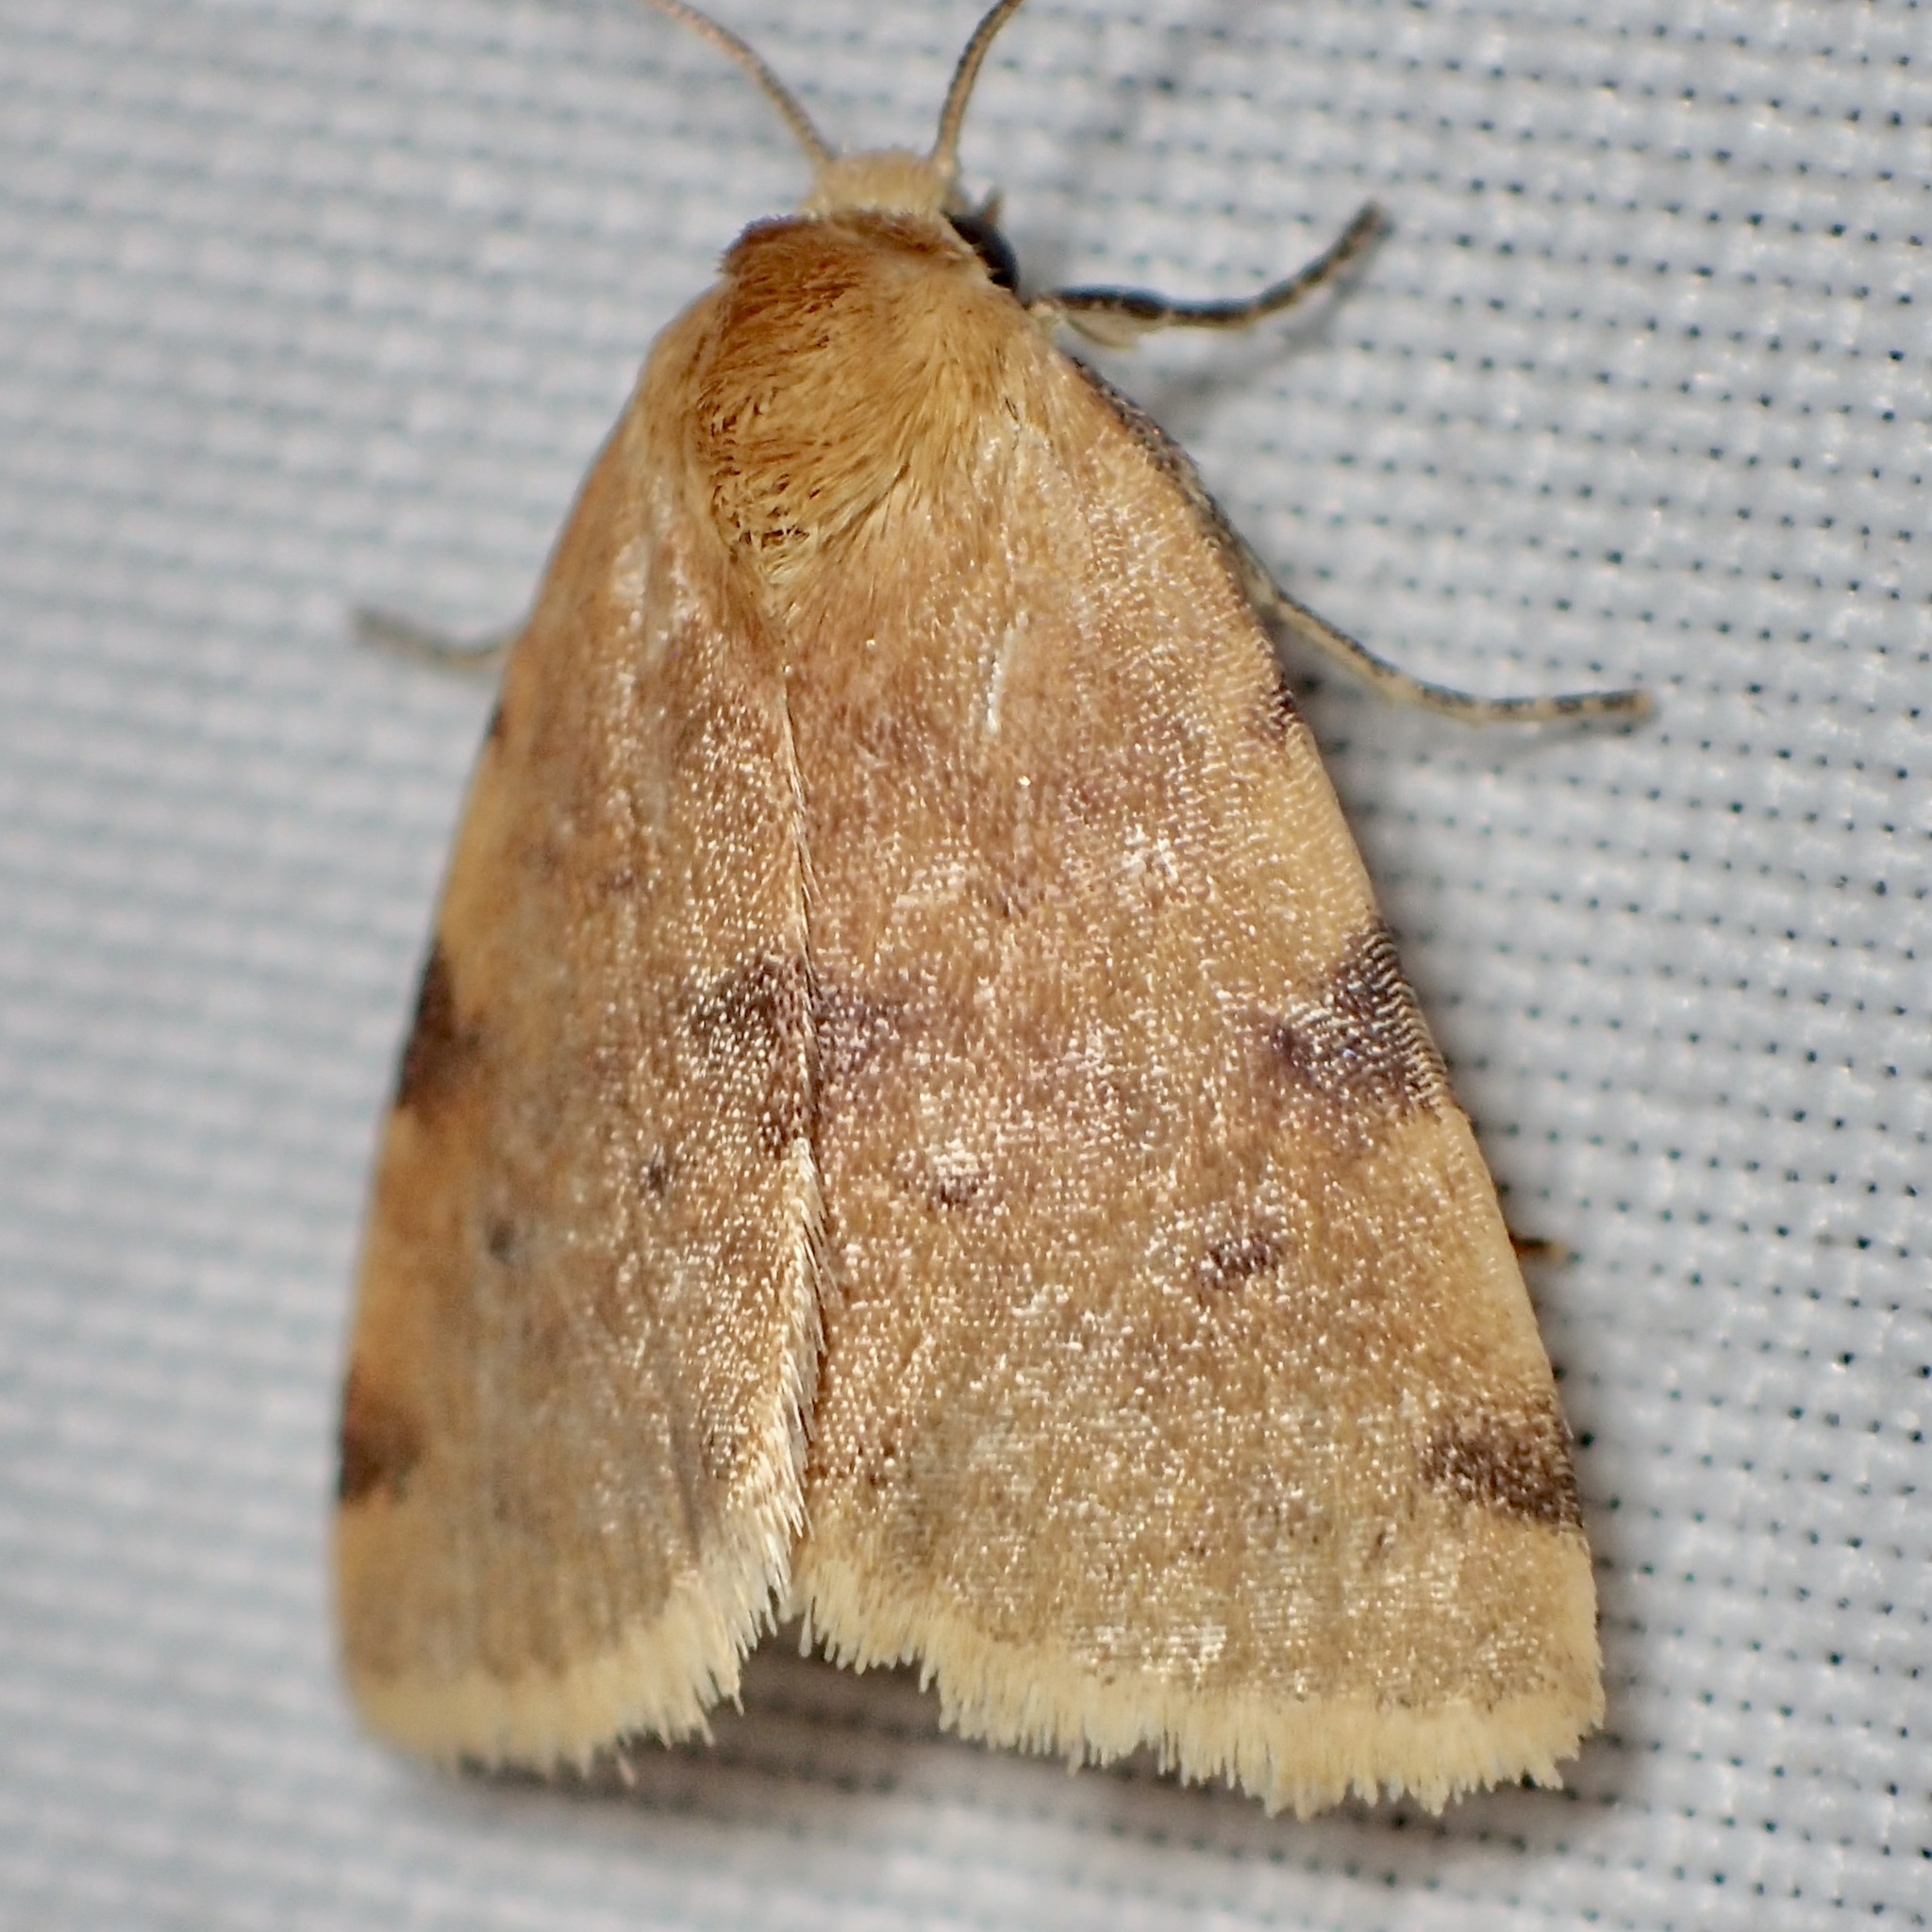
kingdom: Animalia
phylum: Arthropoda
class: Insecta
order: Lepidoptera
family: Noctuidae
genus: Azenia
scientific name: Azenia procida
